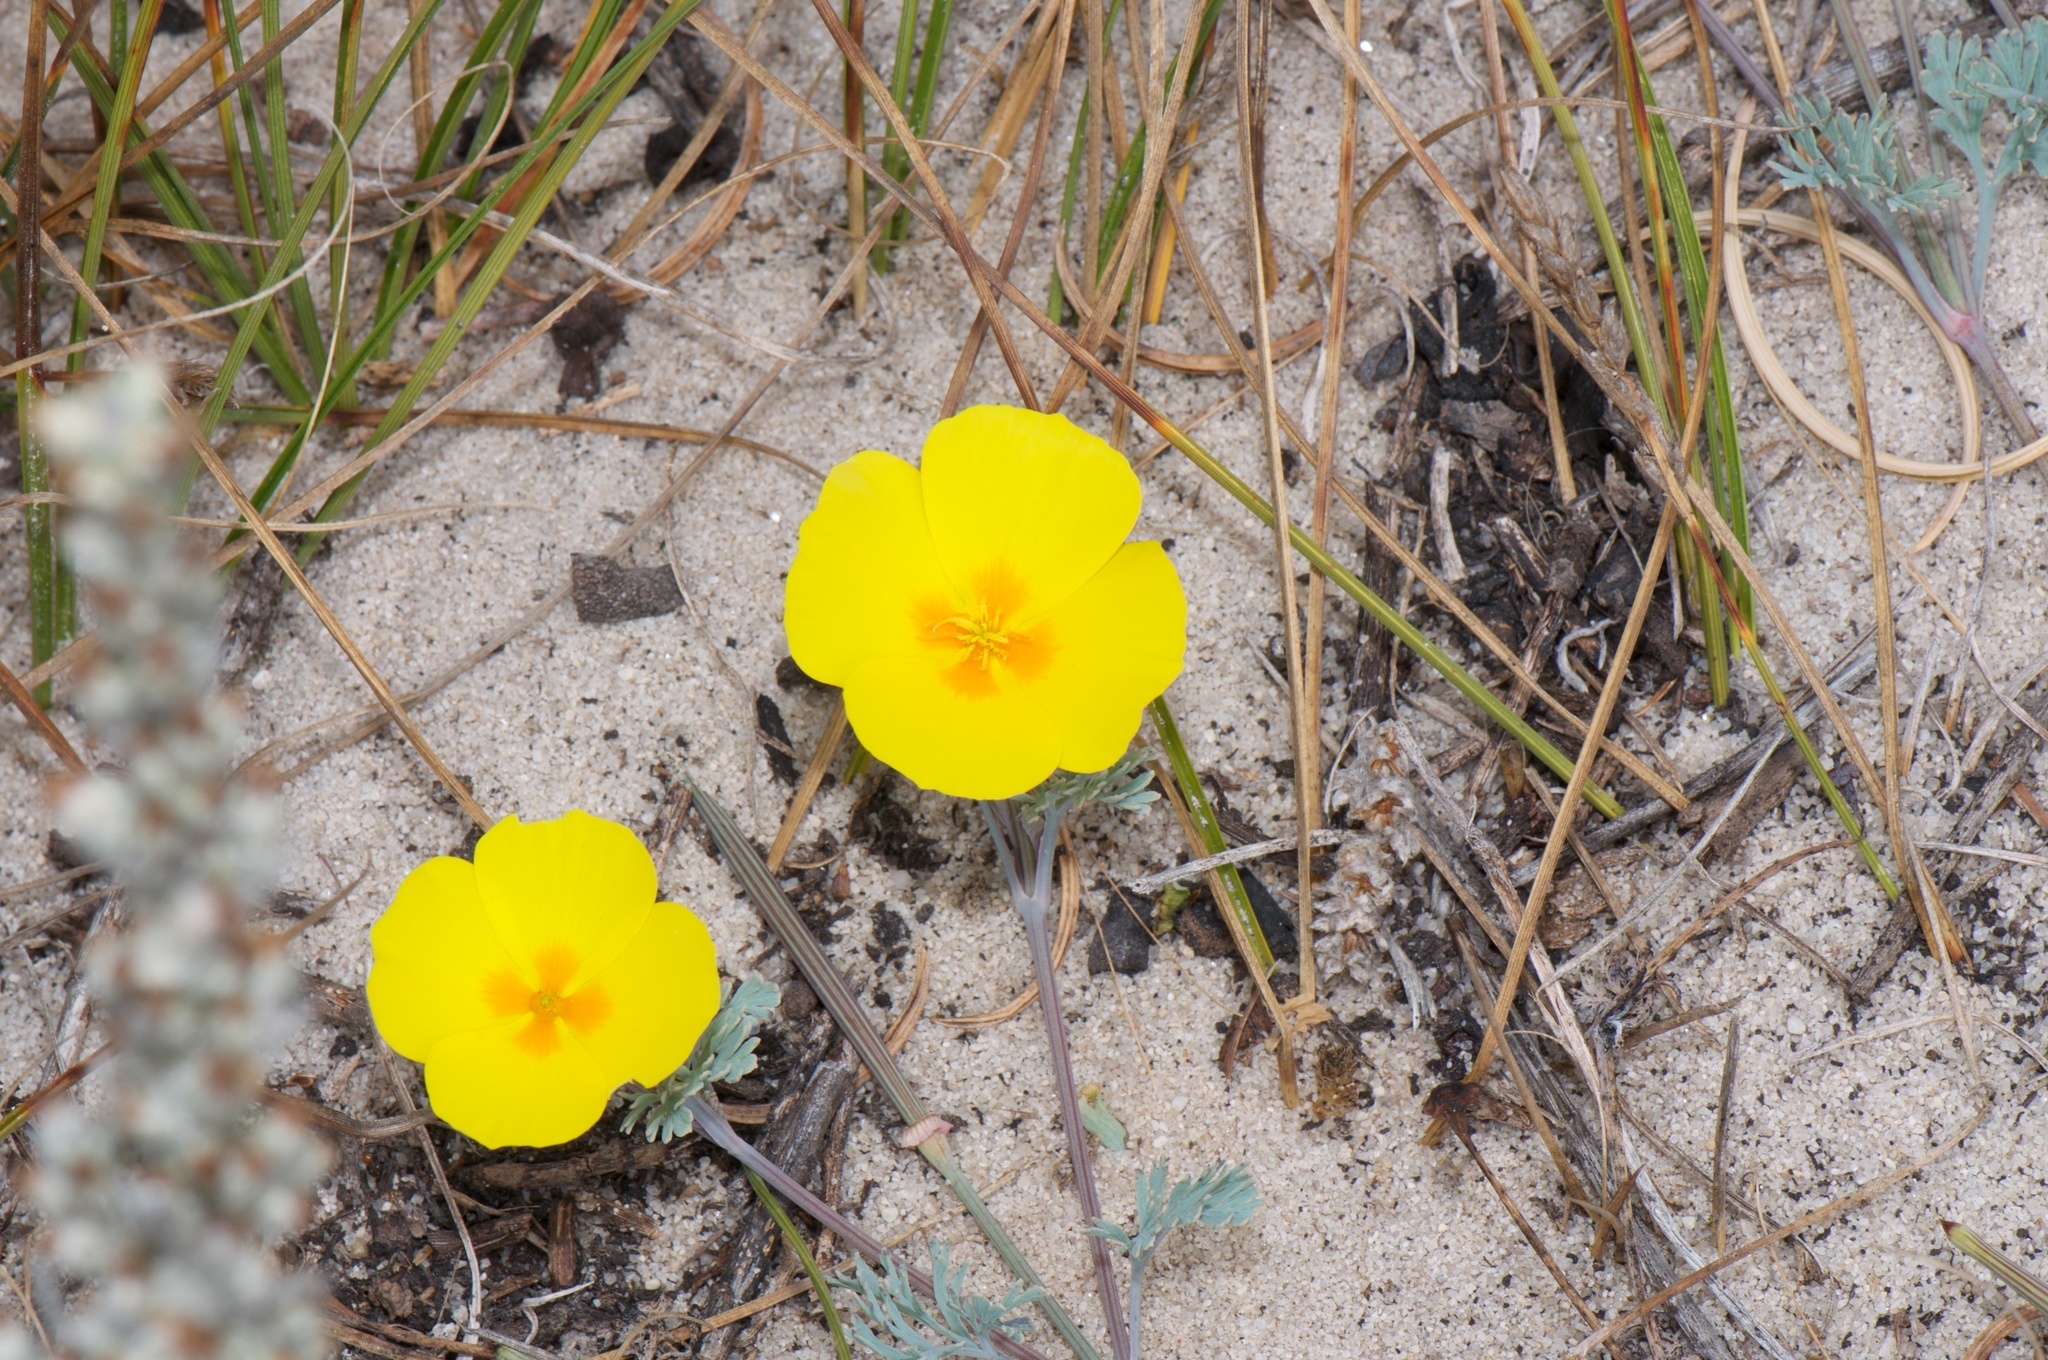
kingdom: Plantae
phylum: Tracheophyta
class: Magnoliopsida
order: Ranunculales
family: Papaveraceae
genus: Eschscholzia
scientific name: Eschscholzia californica
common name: California poppy
